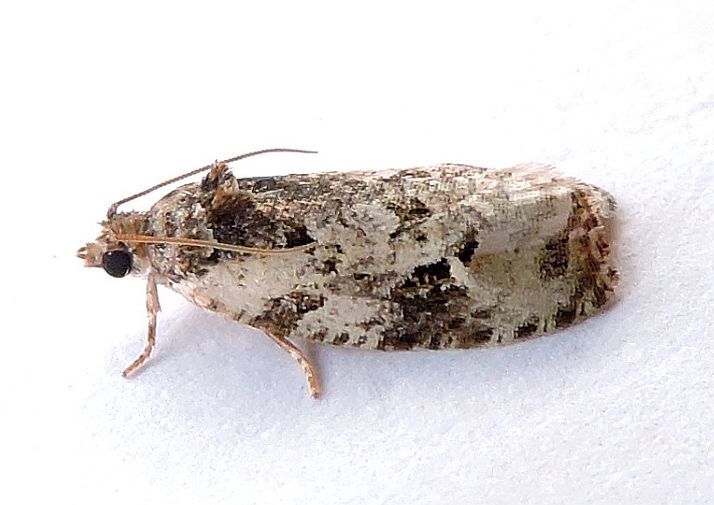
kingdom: Animalia
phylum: Arthropoda
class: Insecta
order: Lepidoptera
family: Tortricidae
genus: Apotomis
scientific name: Apotomis albeolana
